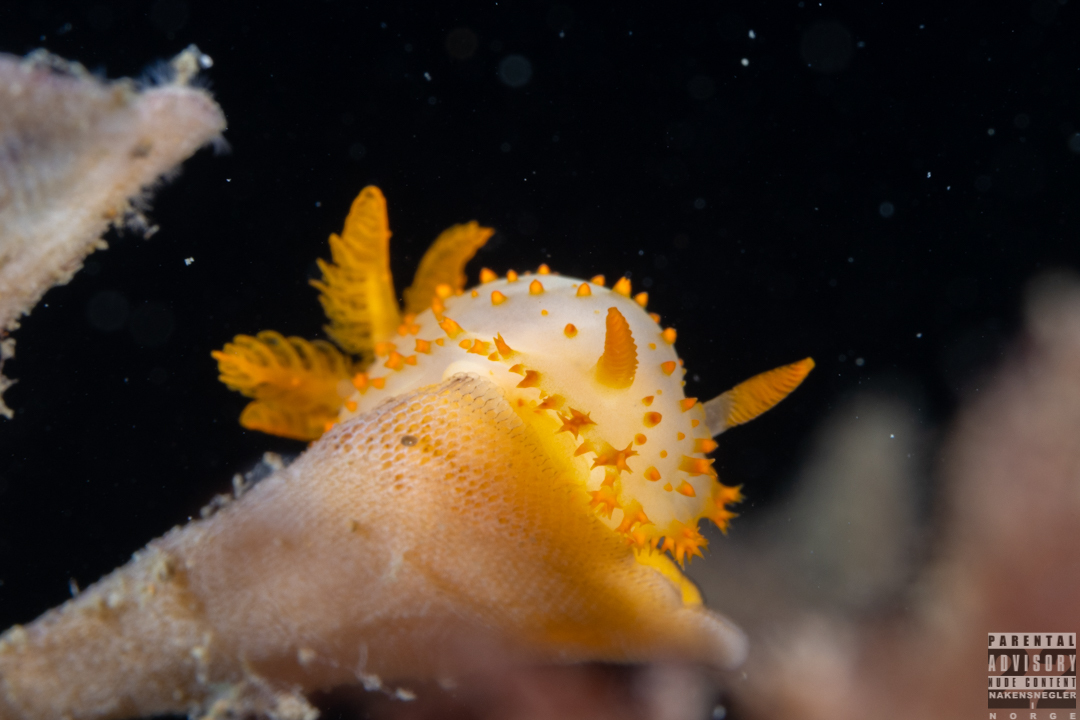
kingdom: Animalia
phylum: Mollusca
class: Gastropoda
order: Nudibranchia
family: Polyceridae
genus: Crimora
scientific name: Crimora papillata
